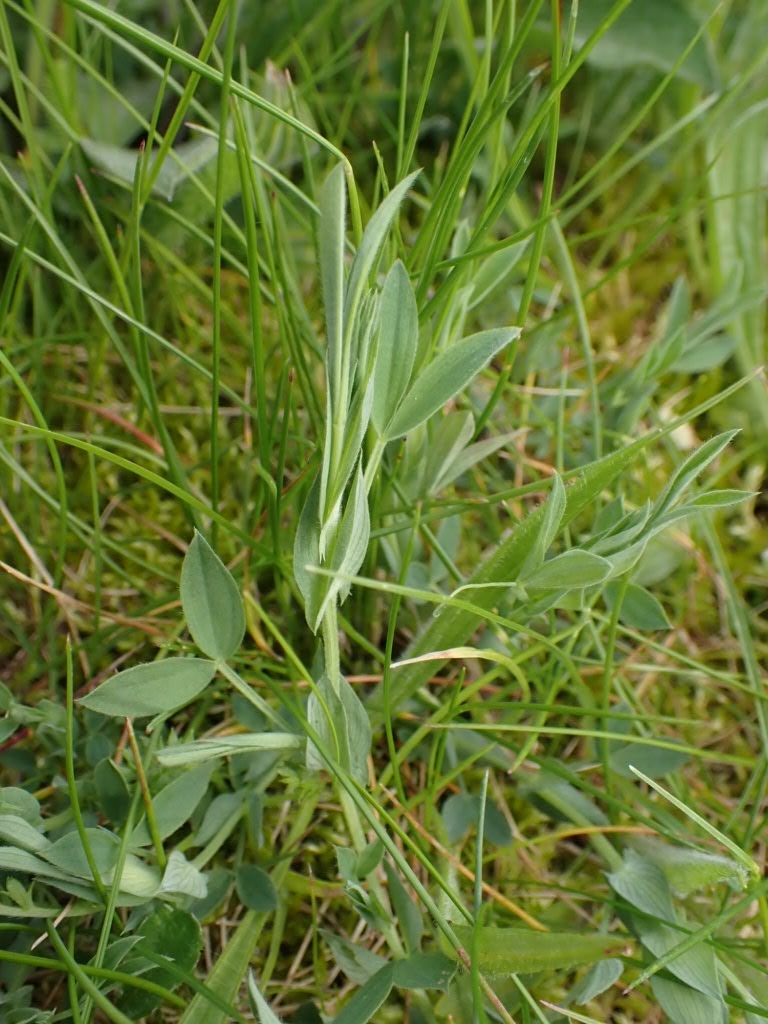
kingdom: Plantae
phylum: Tracheophyta
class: Magnoliopsida
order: Fabales
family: Fabaceae
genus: Lathyrus
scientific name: Lathyrus pratensis
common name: Meadow vetchling
